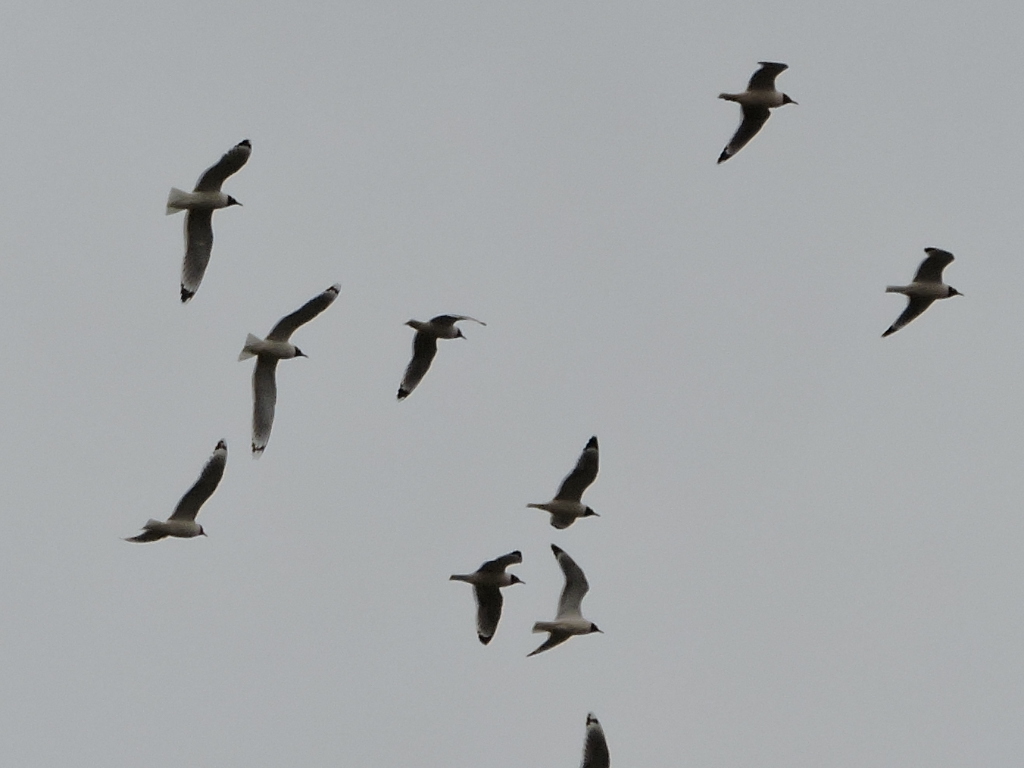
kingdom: Animalia
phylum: Chordata
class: Aves
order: Charadriiformes
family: Laridae
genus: Leucophaeus
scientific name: Leucophaeus pipixcan
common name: Franklin's gull
